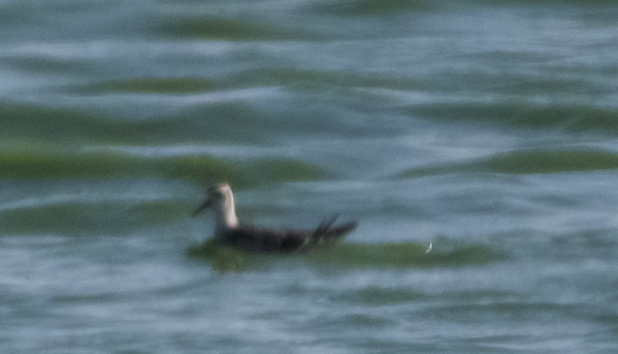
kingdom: Animalia
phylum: Chordata
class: Aves
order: Charadriiformes
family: Scolopacidae
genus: Phalaropus
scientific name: Phalaropus lobatus
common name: Red-necked phalarope
